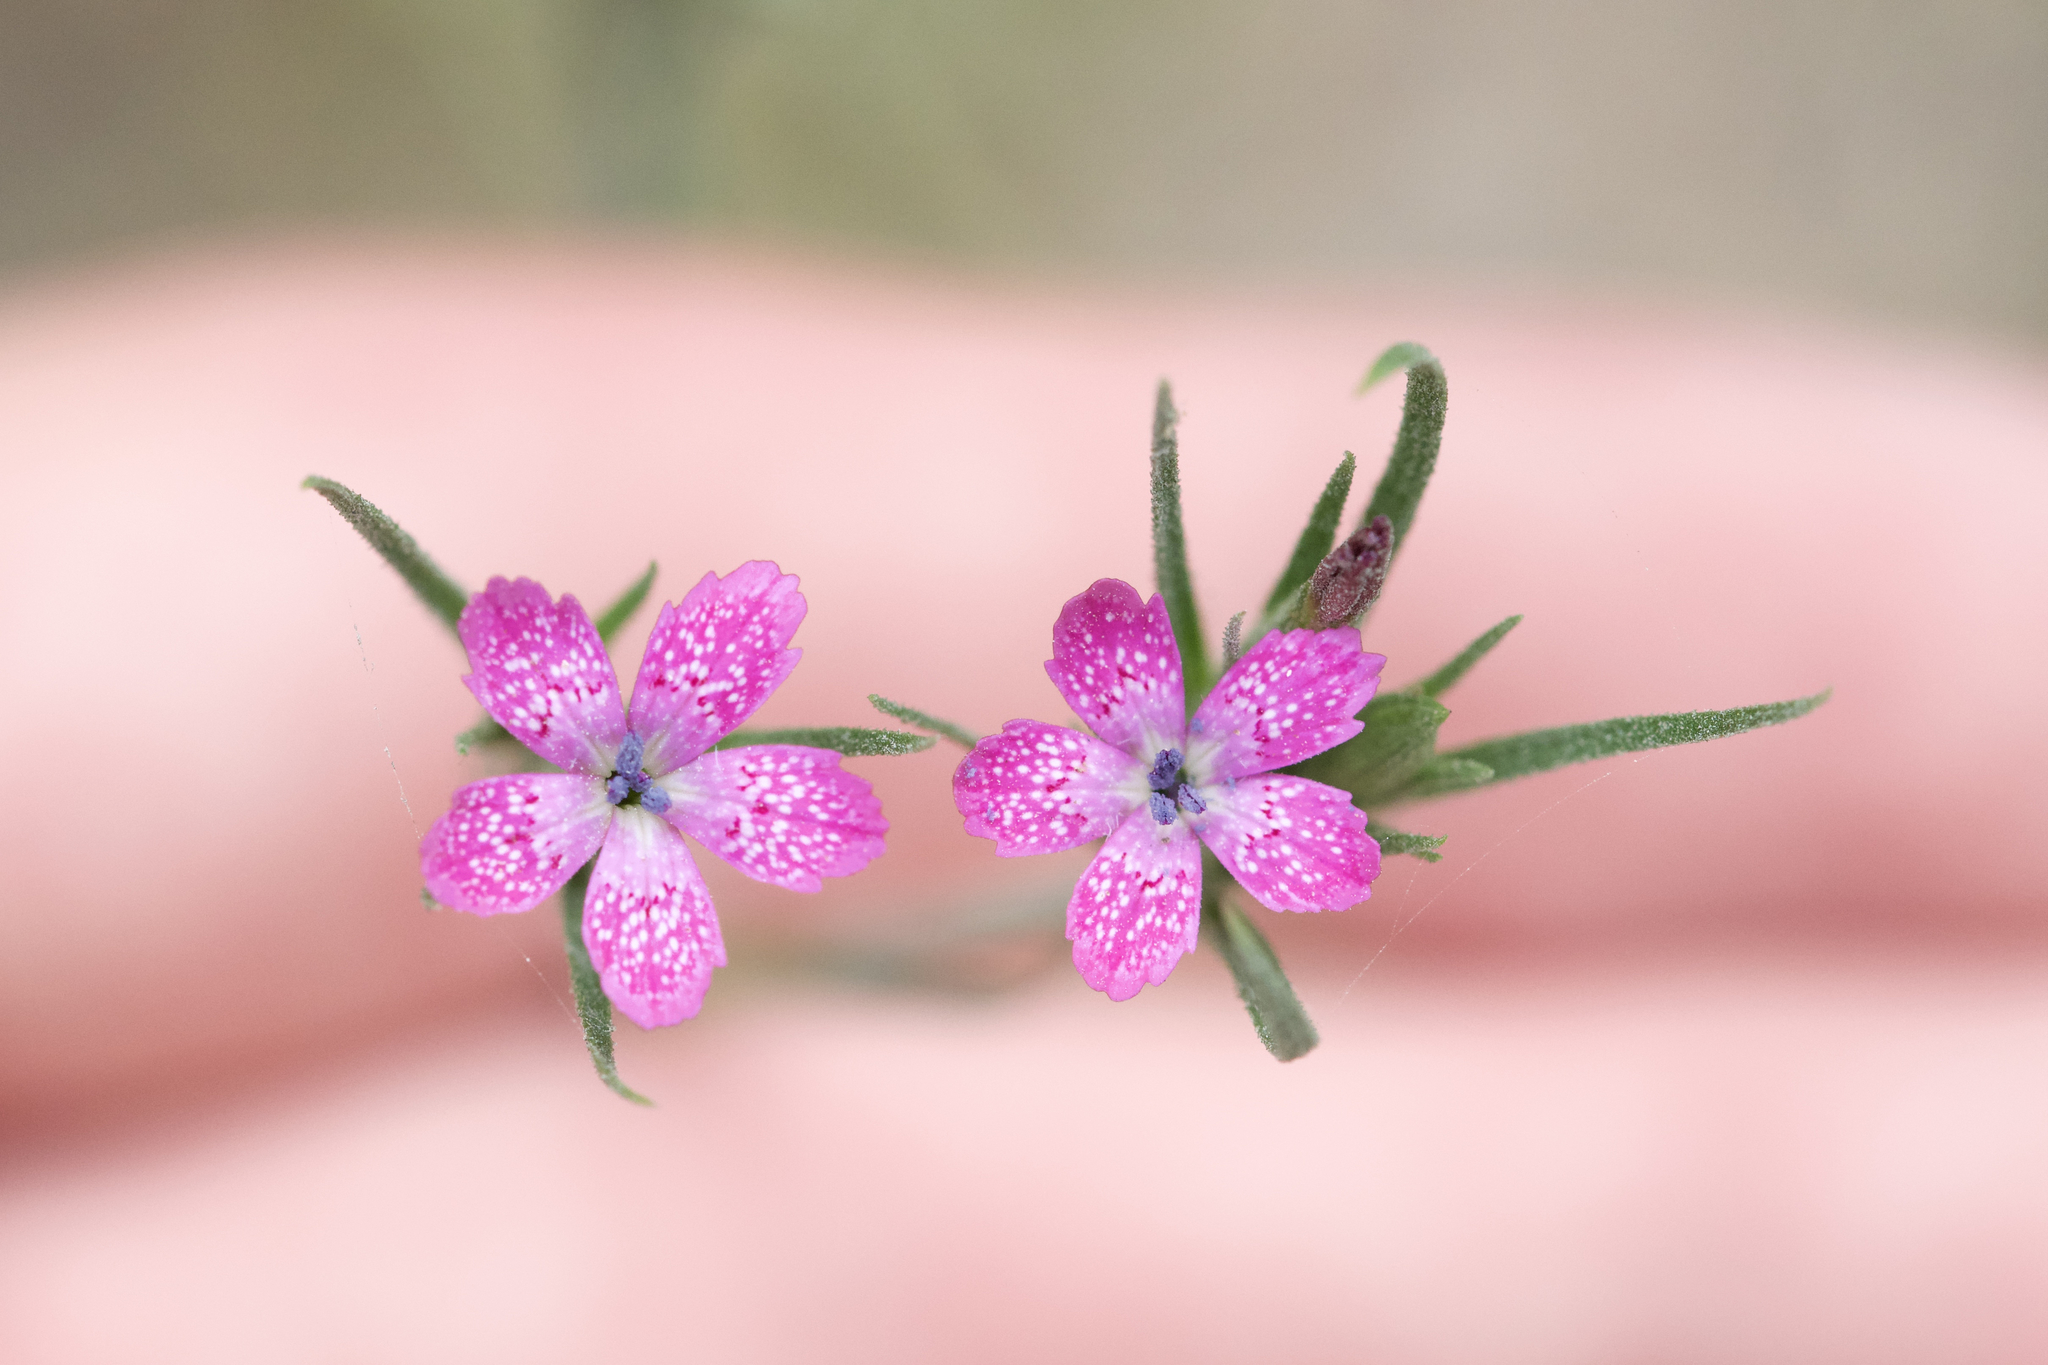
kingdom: Plantae
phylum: Tracheophyta
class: Magnoliopsida
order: Caryophyllales
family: Caryophyllaceae
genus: Dianthus
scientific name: Dianthus armeria
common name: Deptford pink
